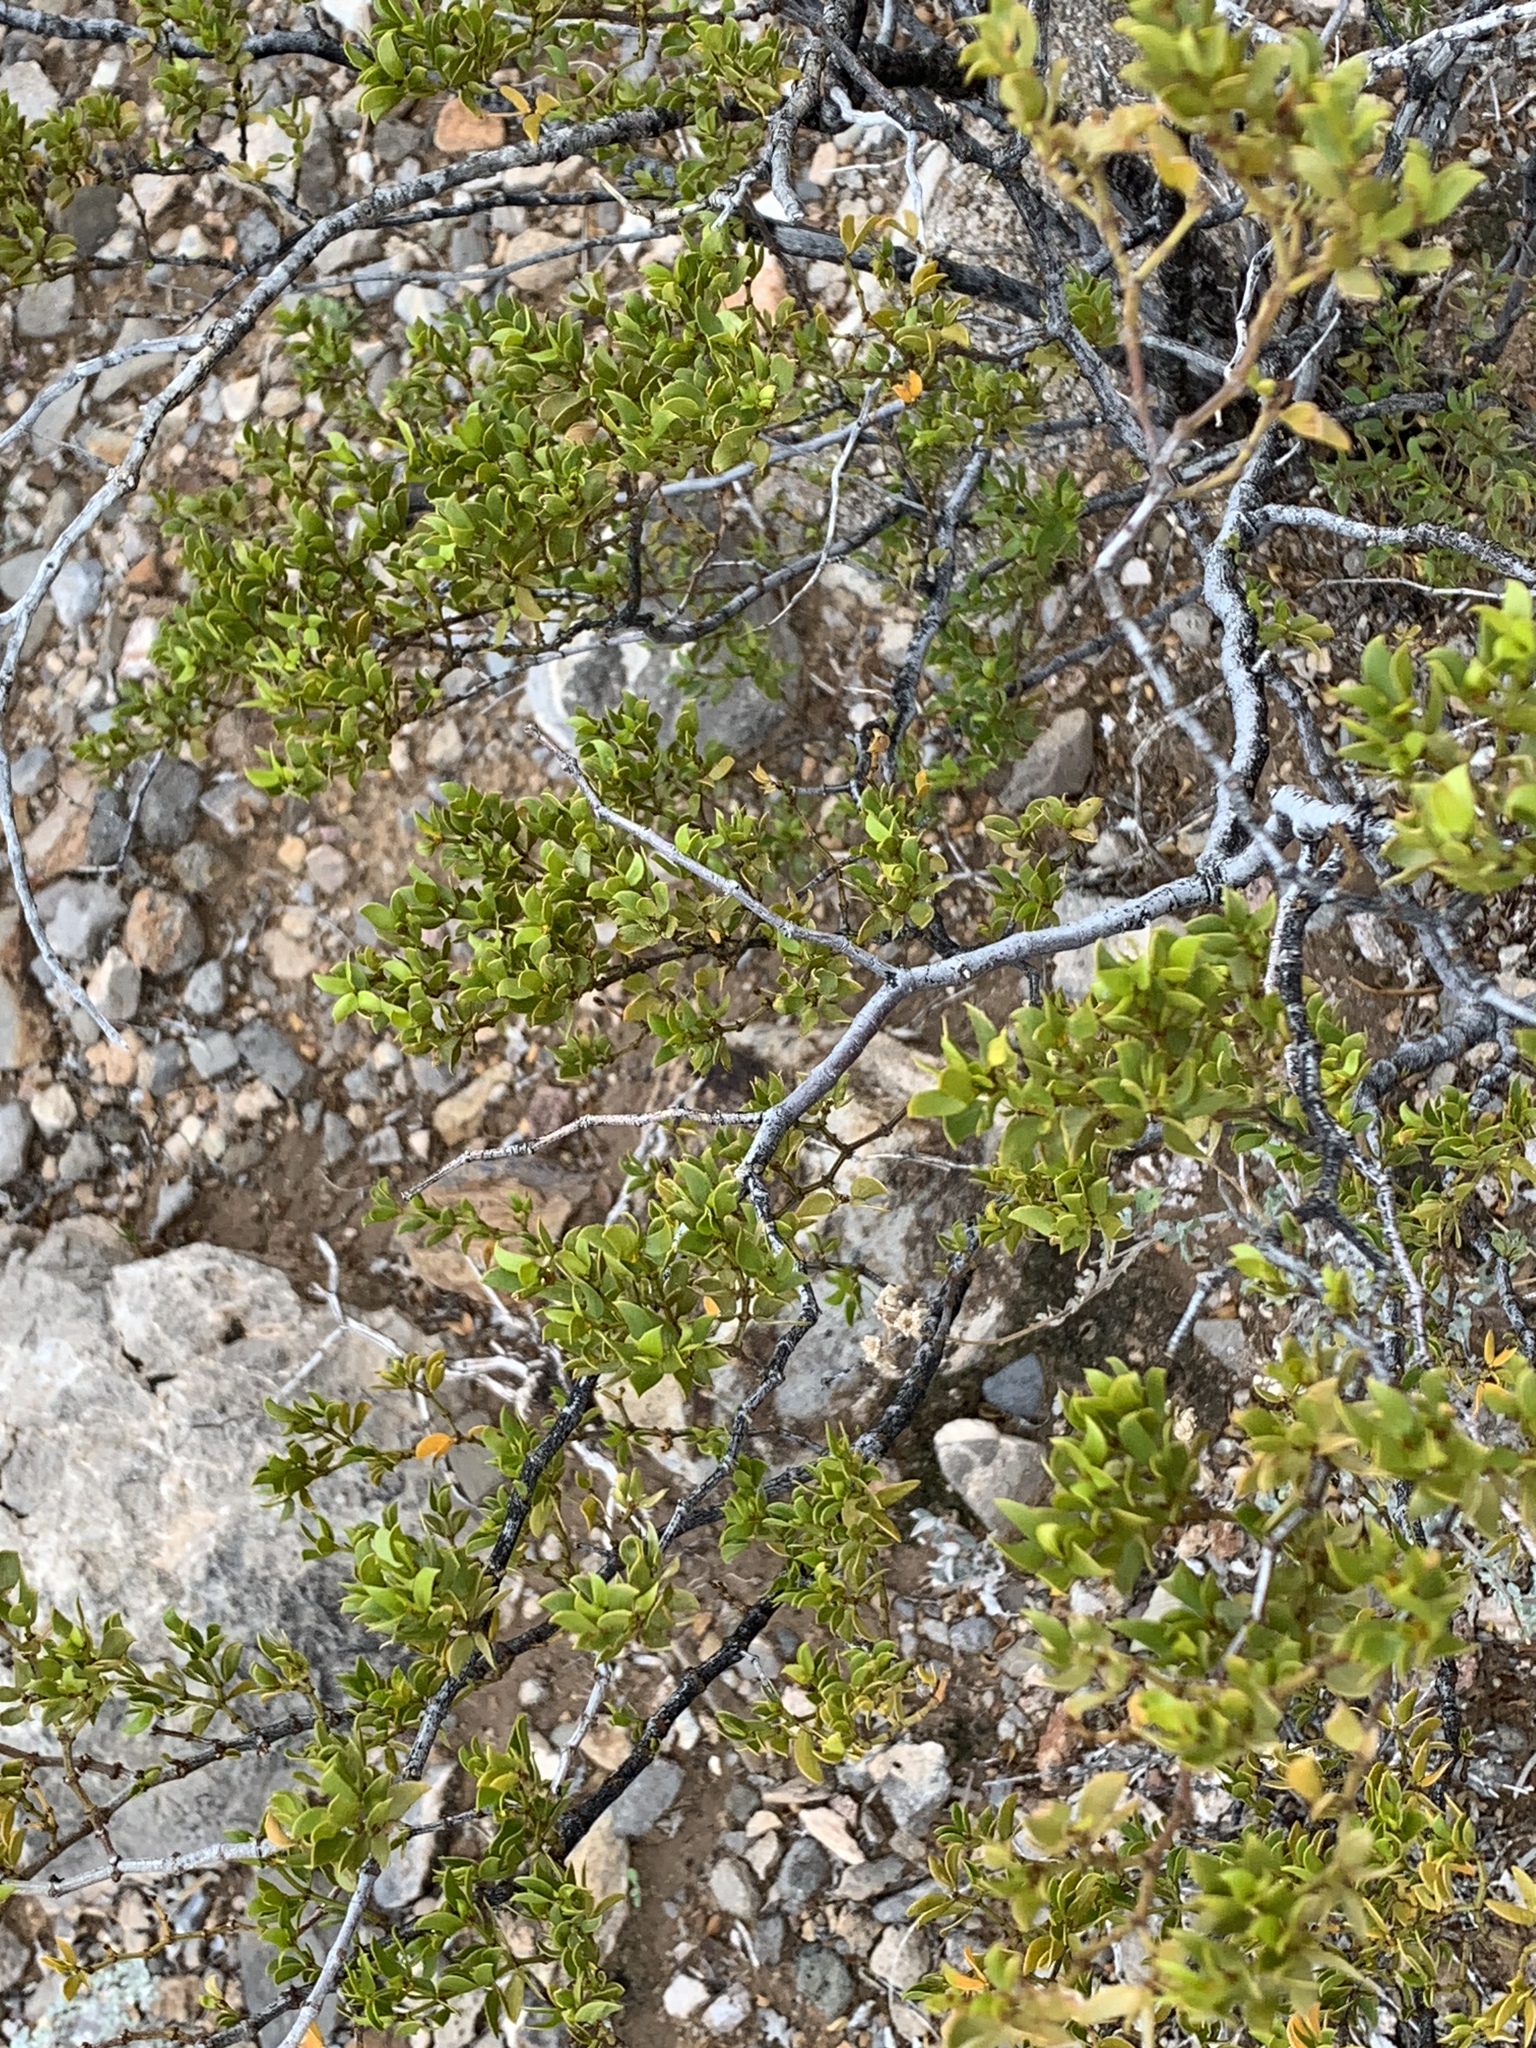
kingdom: Plantae
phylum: Tracheophyta
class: Magnoliopsida
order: Zygophyllales
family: Zygophyllaceae
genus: Larrea
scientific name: Larrea tridentata
